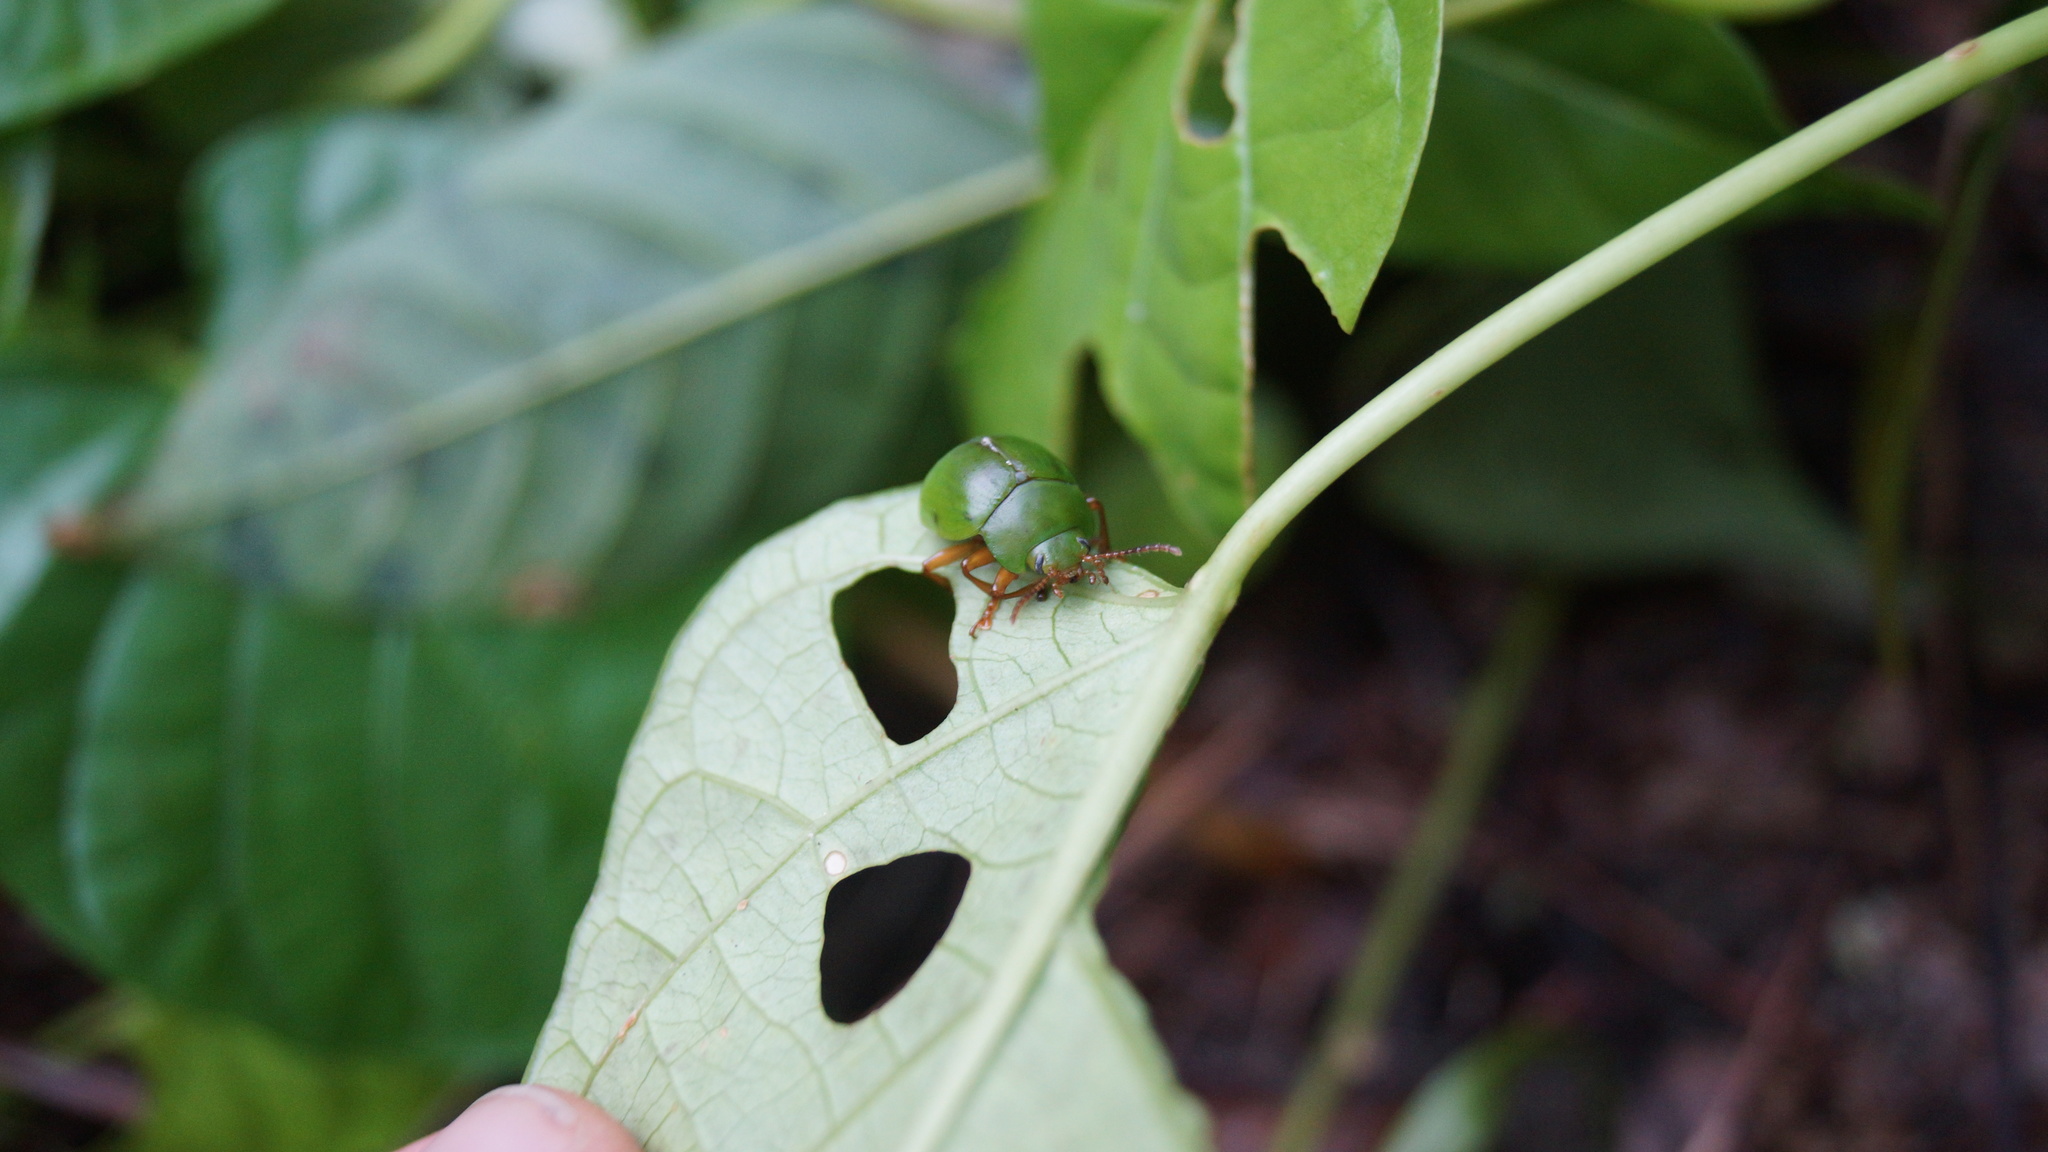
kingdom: Animalia
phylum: Arthropoda
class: Insecta
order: Coleoptera
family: Chrysomelidae
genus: Platyphora
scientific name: Platyphora
